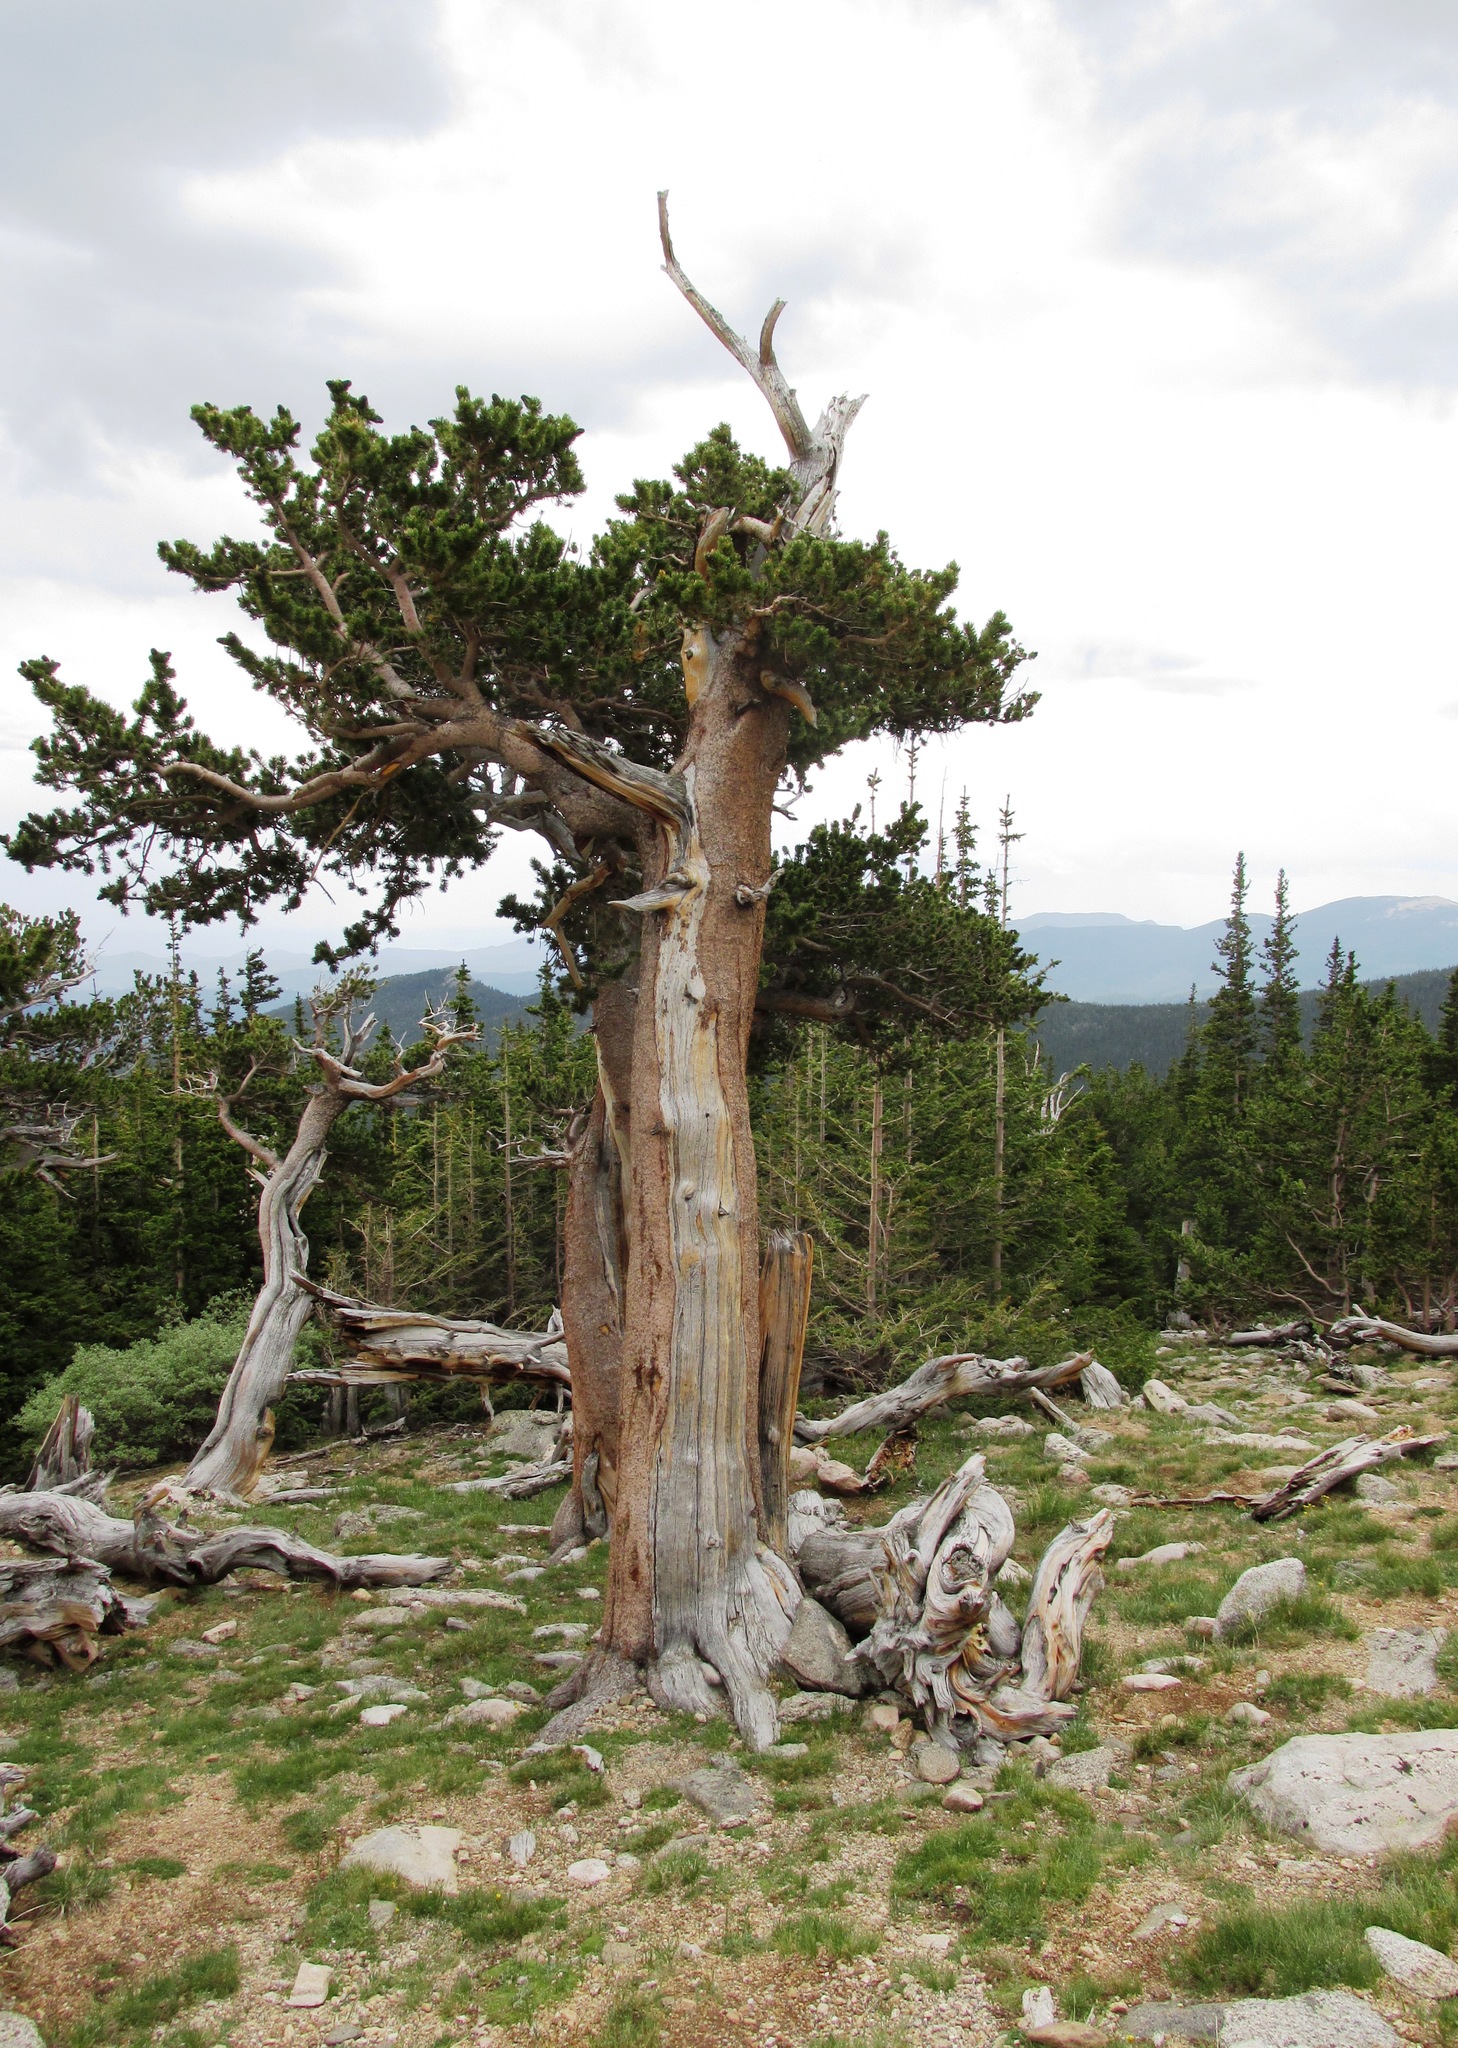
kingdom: Plantae
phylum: Tracheophyta
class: Pinopsida
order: Pinales
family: Pinaceae
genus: Pinus
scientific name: Pinus aristata
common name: Colorado bristlecone pine
